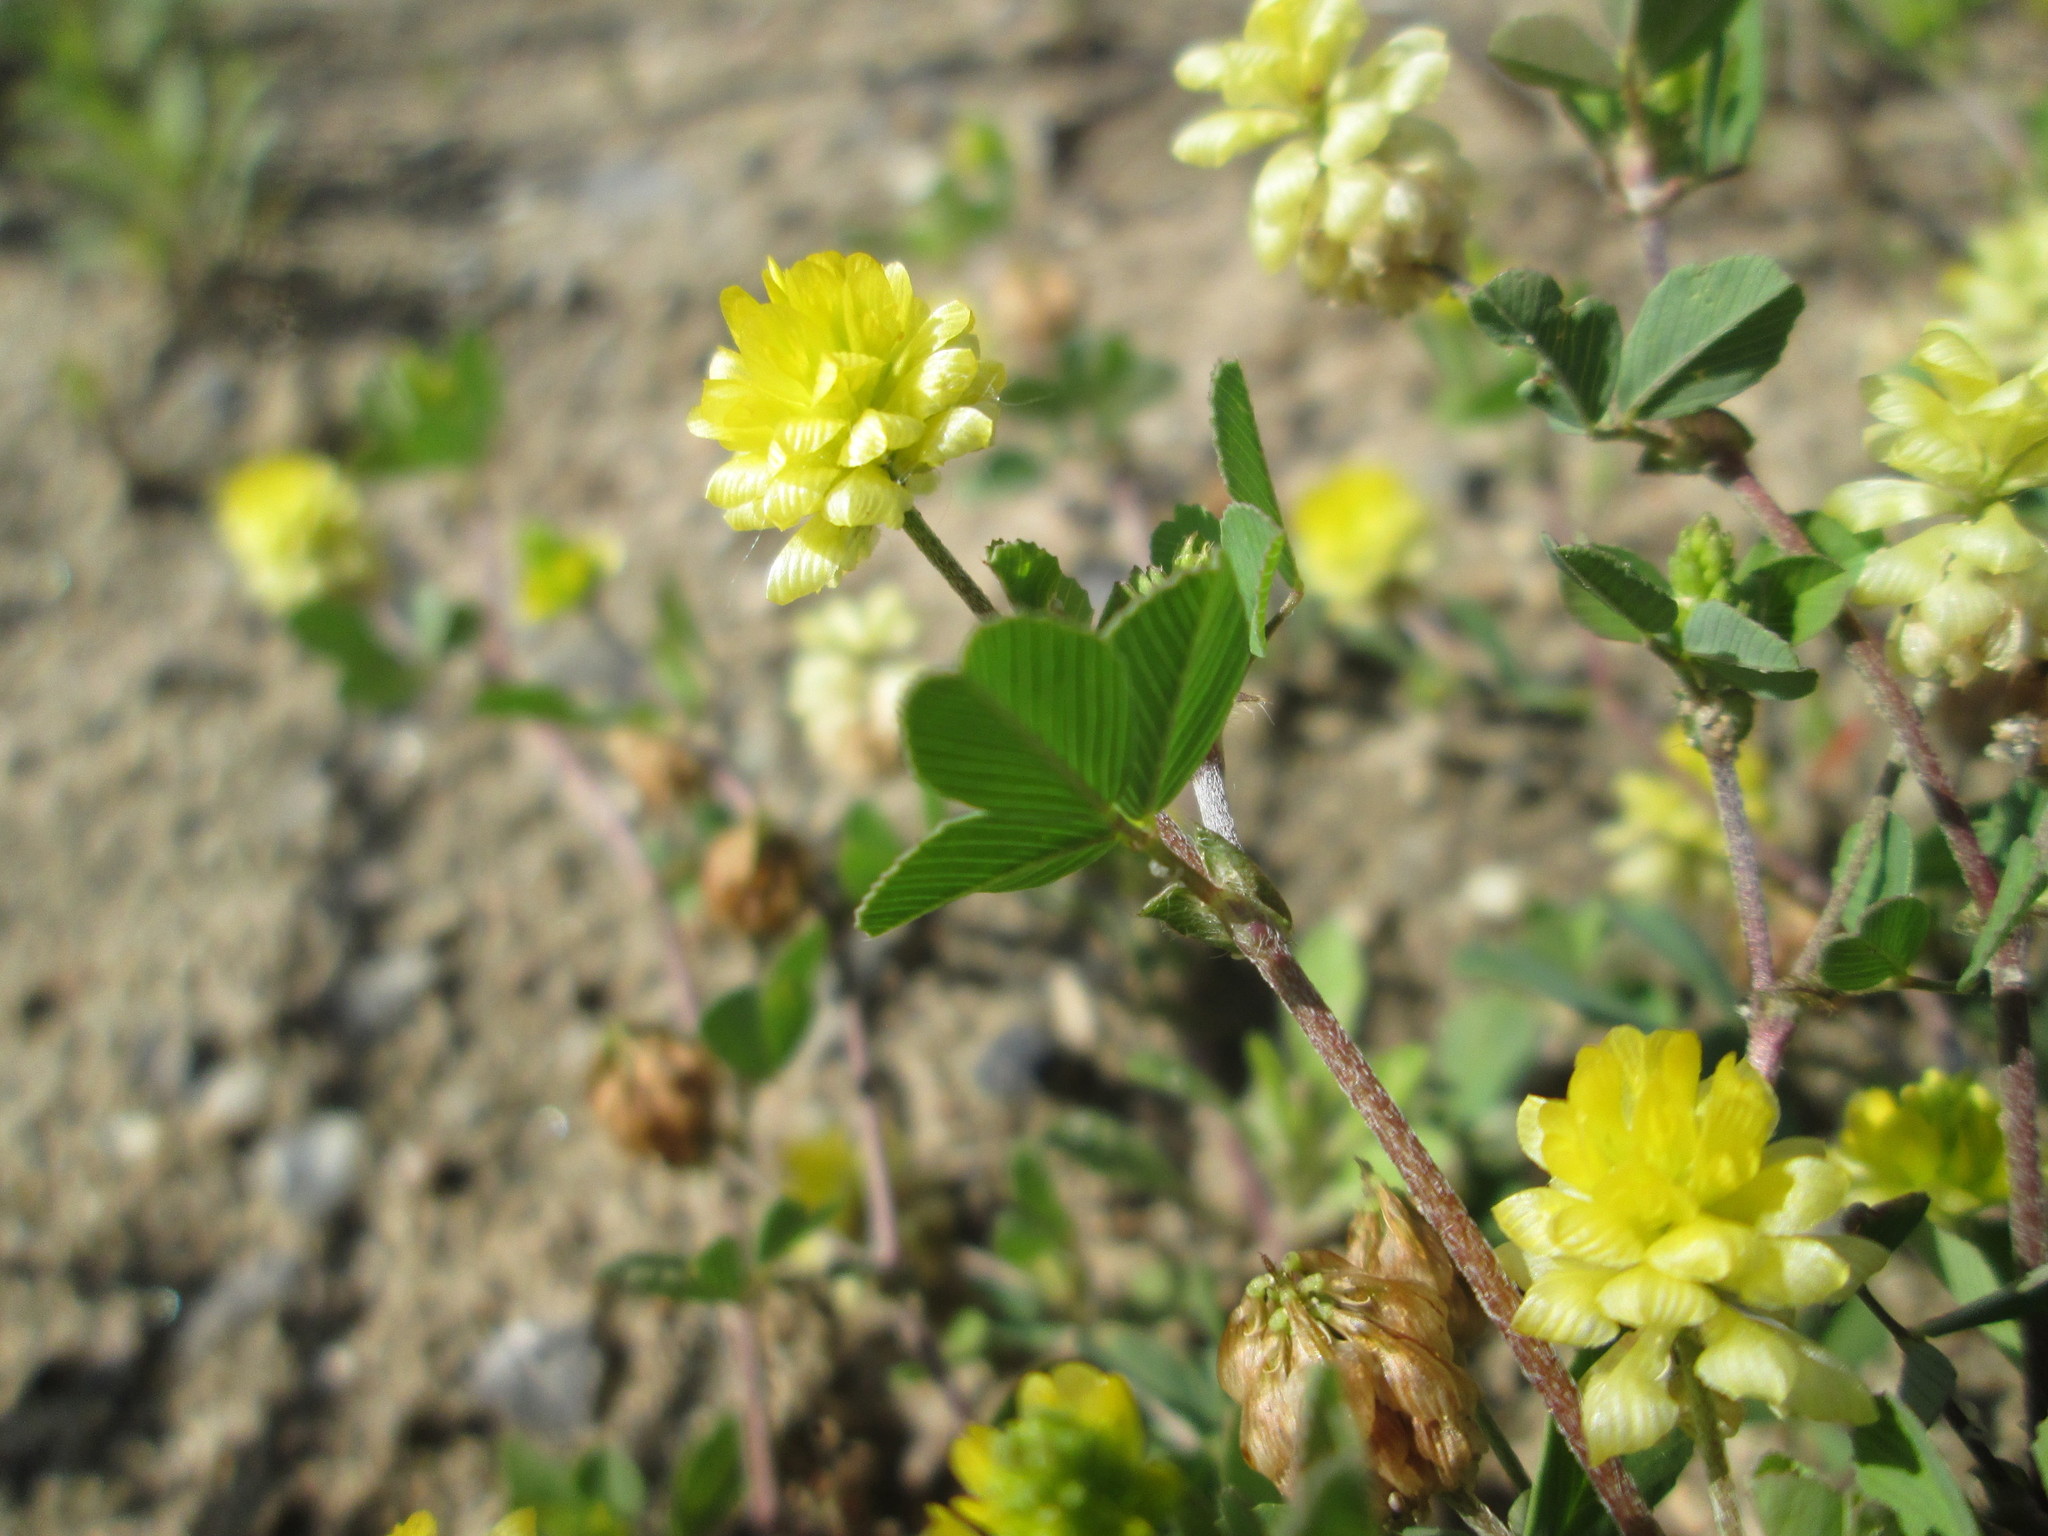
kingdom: Plantae
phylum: Tracheophyta
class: Magnoliopsida
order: Fabales
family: Fabaceae
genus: Trifolium
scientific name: Trifolium campestre
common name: Field clover
